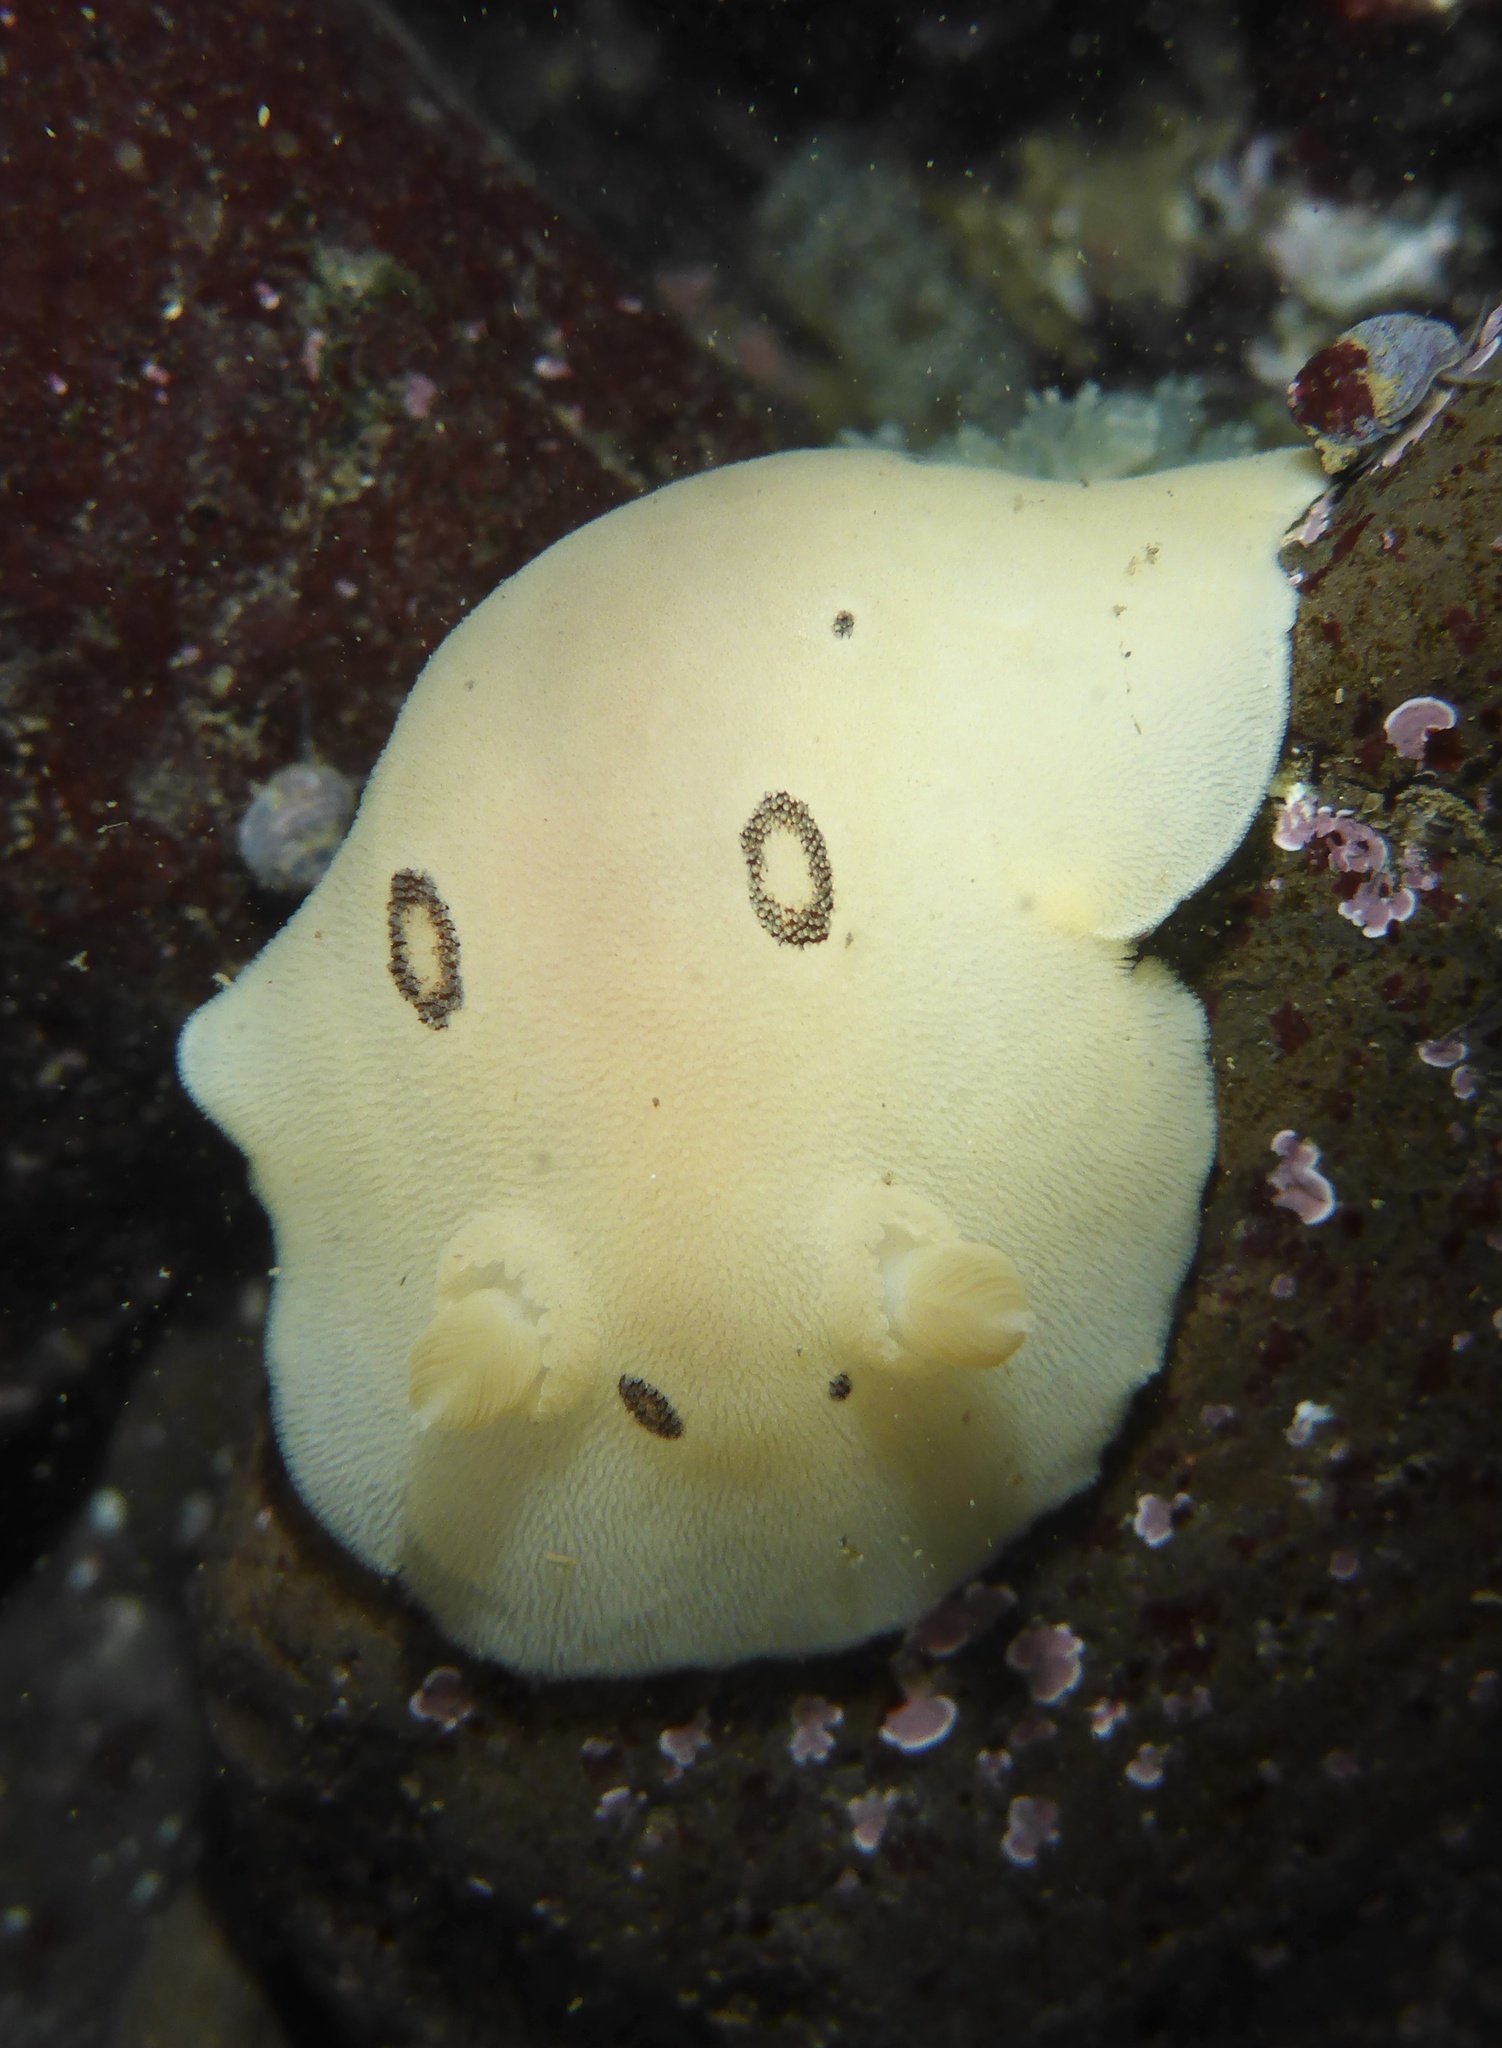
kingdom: Animalia
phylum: Mollusca
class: Gastropoda
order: Nudibranchia
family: Discodorididae
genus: Diaulula
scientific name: Diaulula sandiegensis
